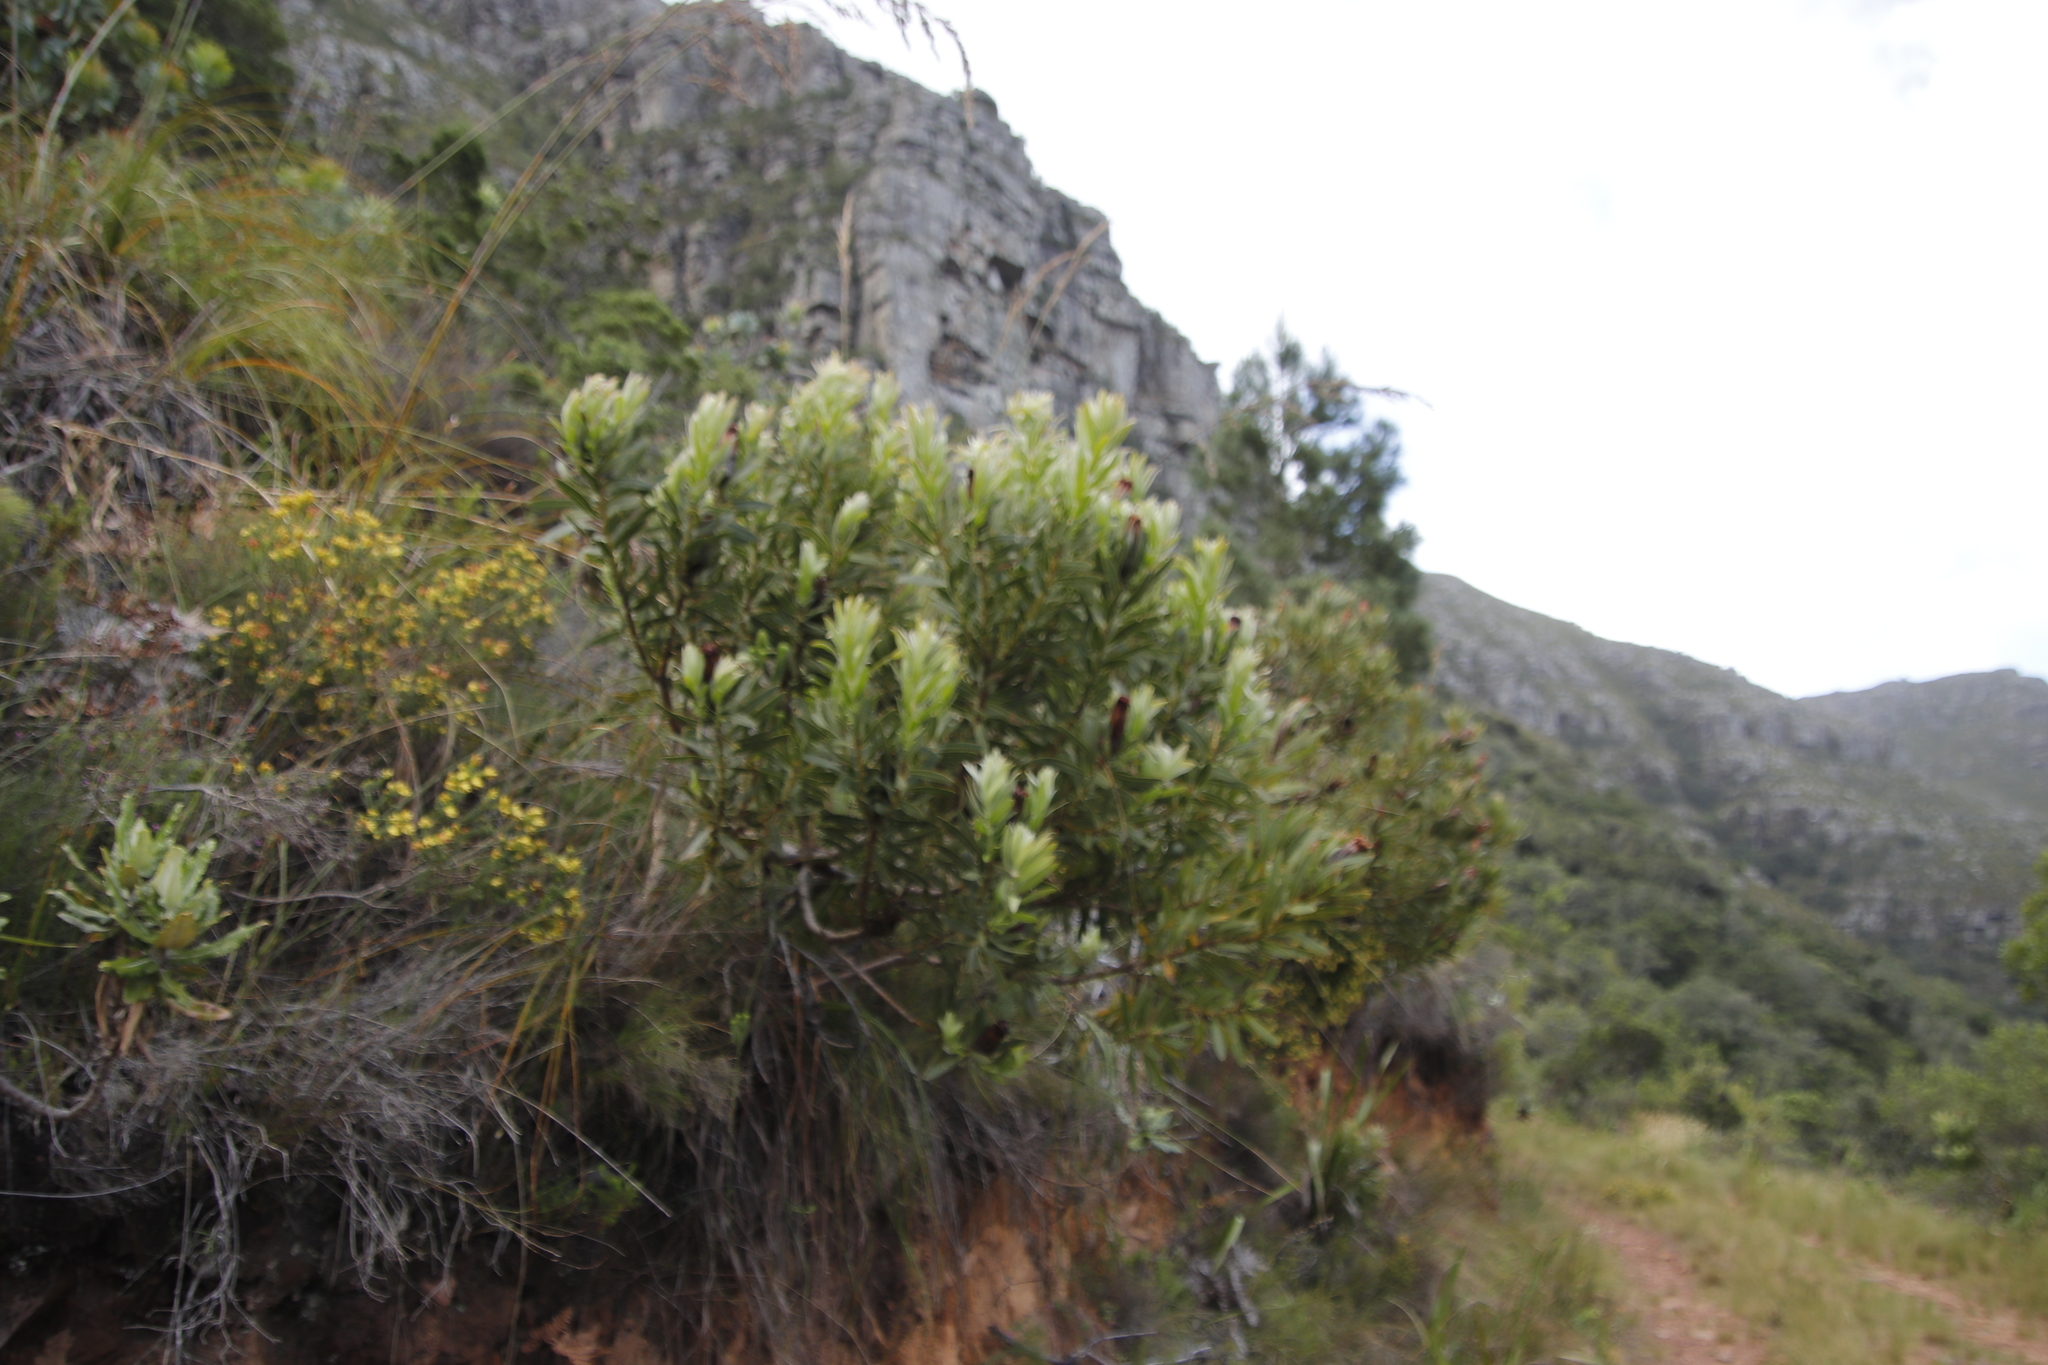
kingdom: Plantae
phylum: Tracheophyta
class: Magnoliopsida
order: Proteales
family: Proteaceae
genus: Protea
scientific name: Protea lepidocarpodendron
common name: Black-bearded protea
